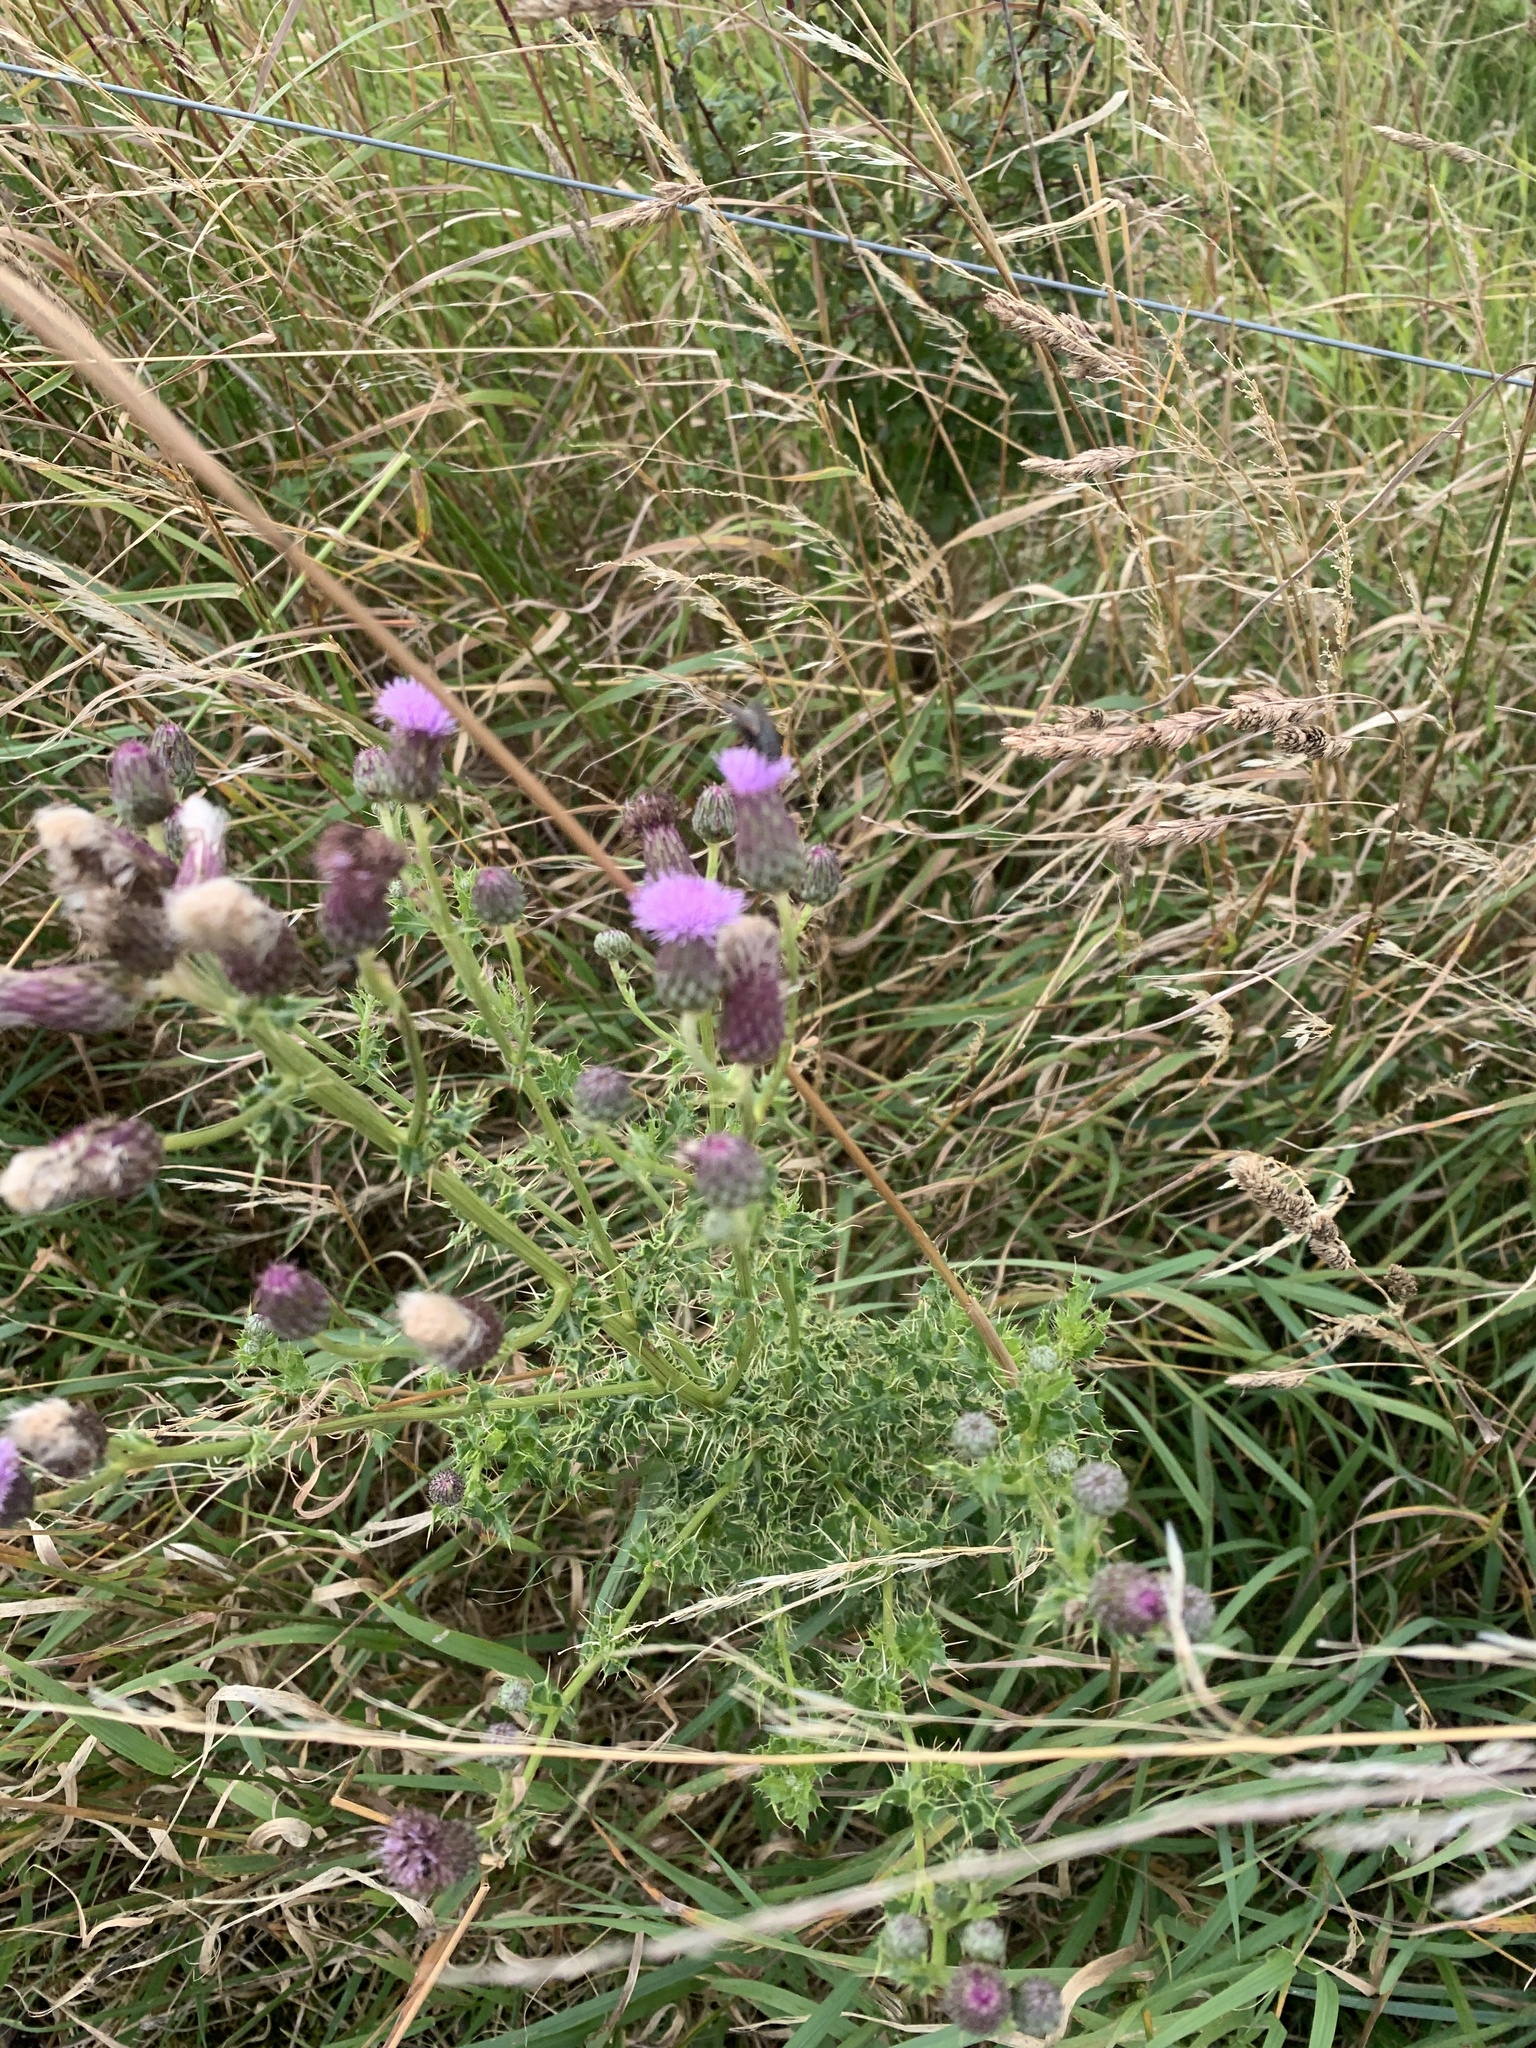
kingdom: Plantae
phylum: Tracheophyta
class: Magnoliopsida
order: Asterales
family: Asteraceae
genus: Cirsium
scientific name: Cirsium arvense
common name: Creeping thistle
